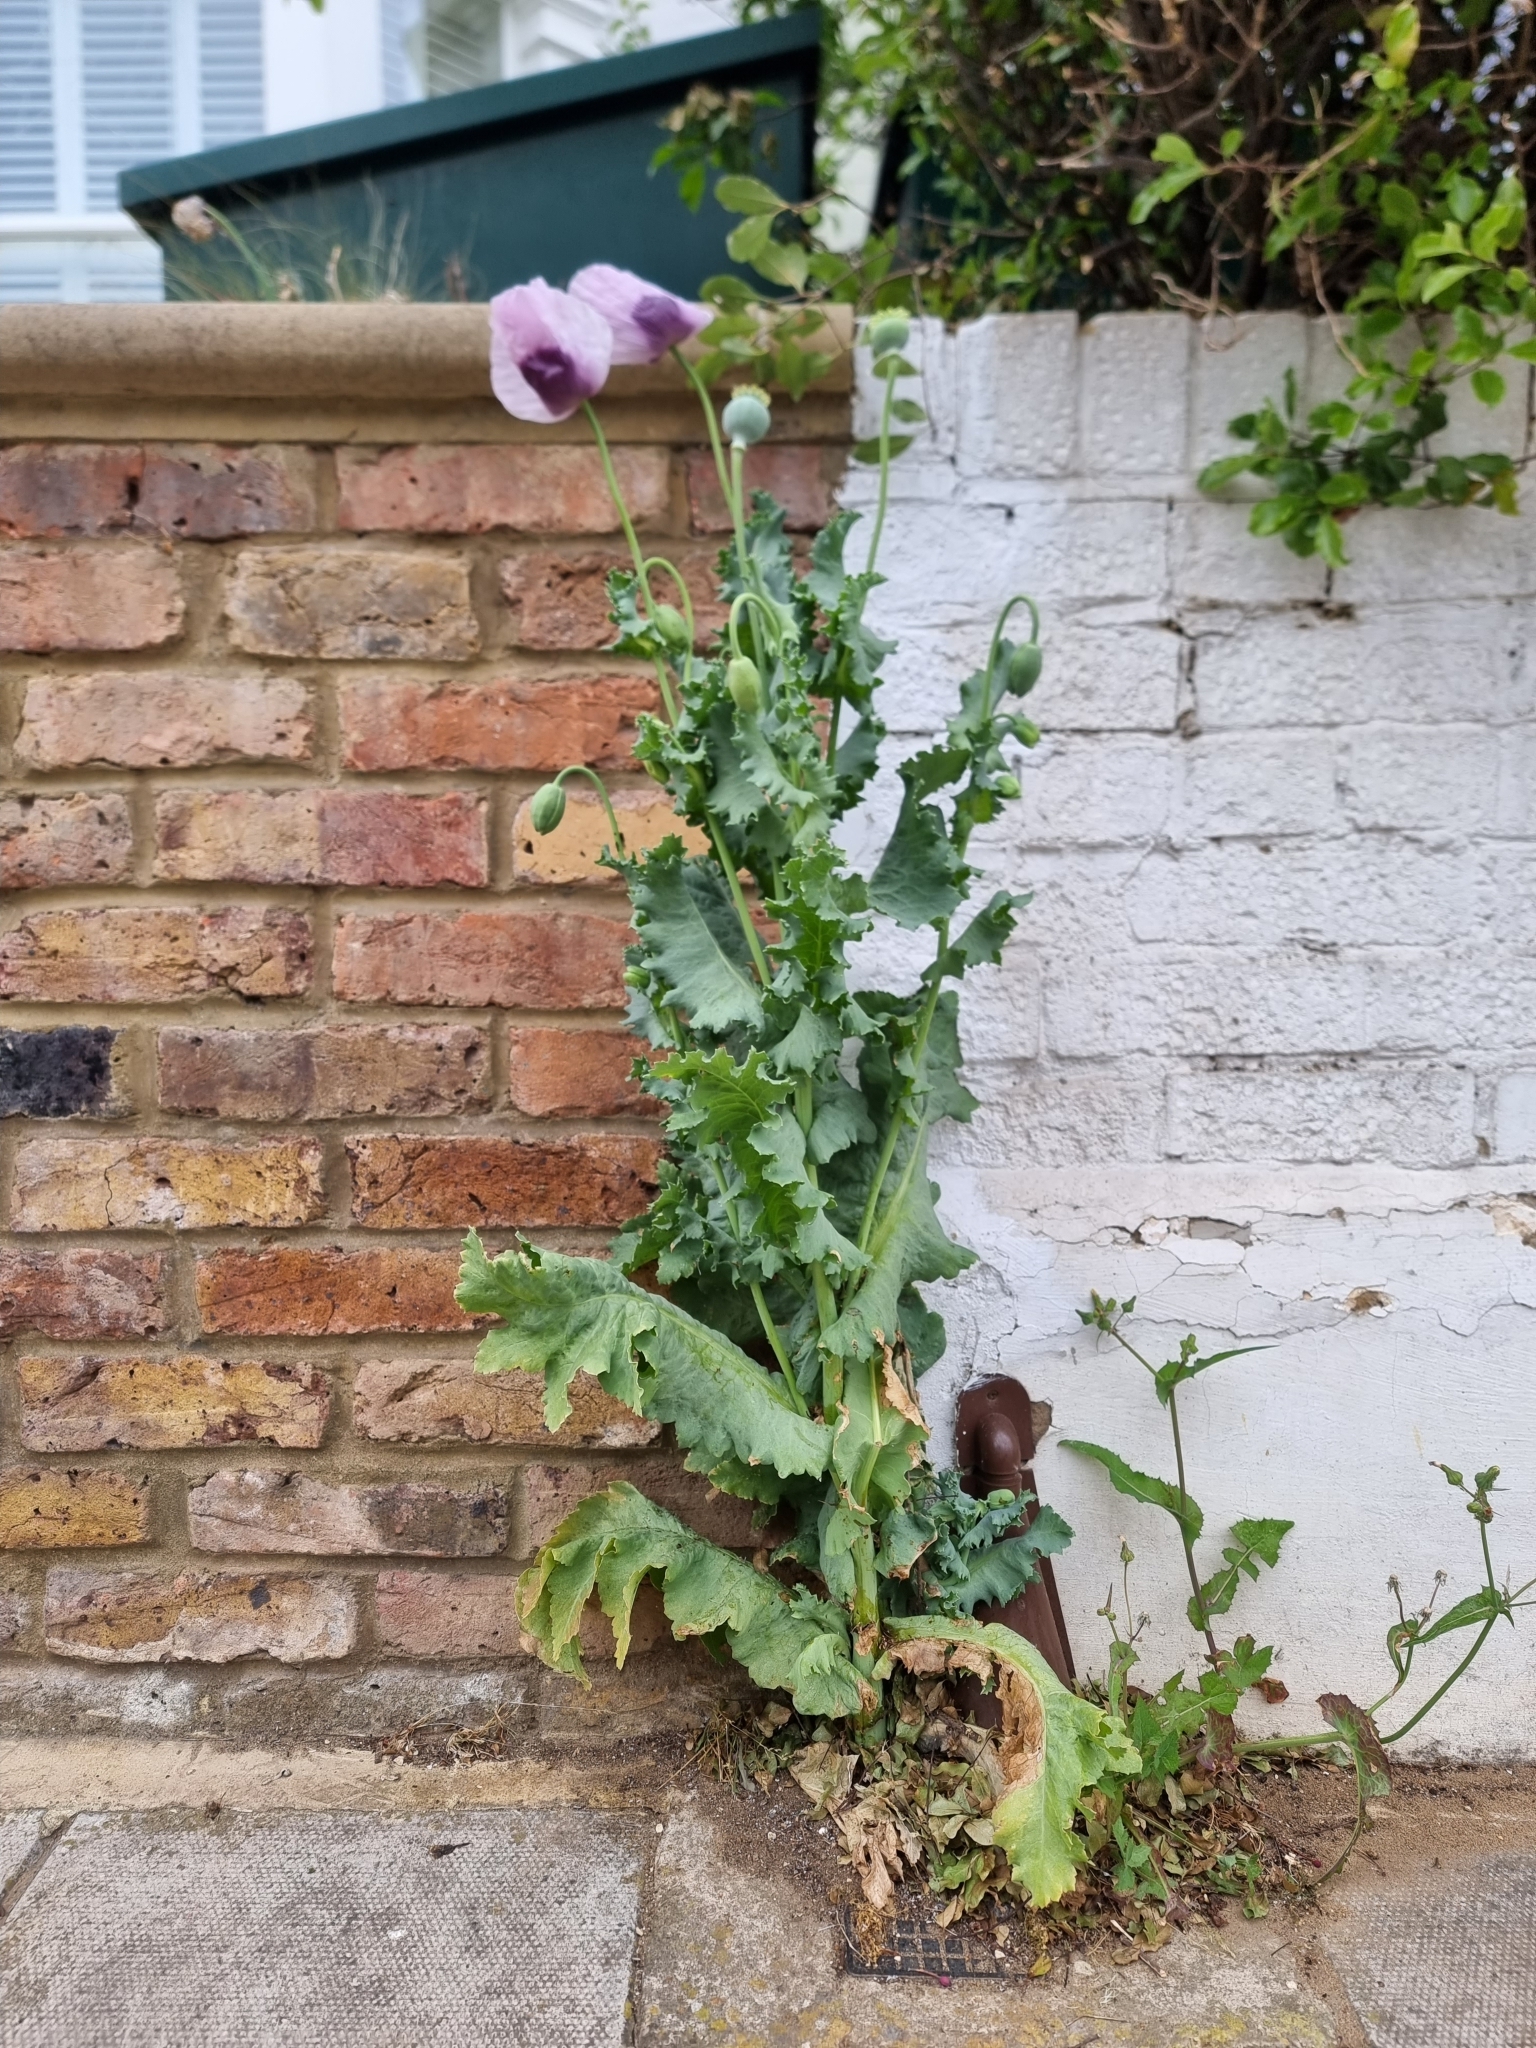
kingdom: Plantae
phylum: Tracheophyta
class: Magnoliopsida
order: Ranunculales
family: Papaveraceae
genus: Papaver
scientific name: Papaver somniferum
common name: Opium poppy
